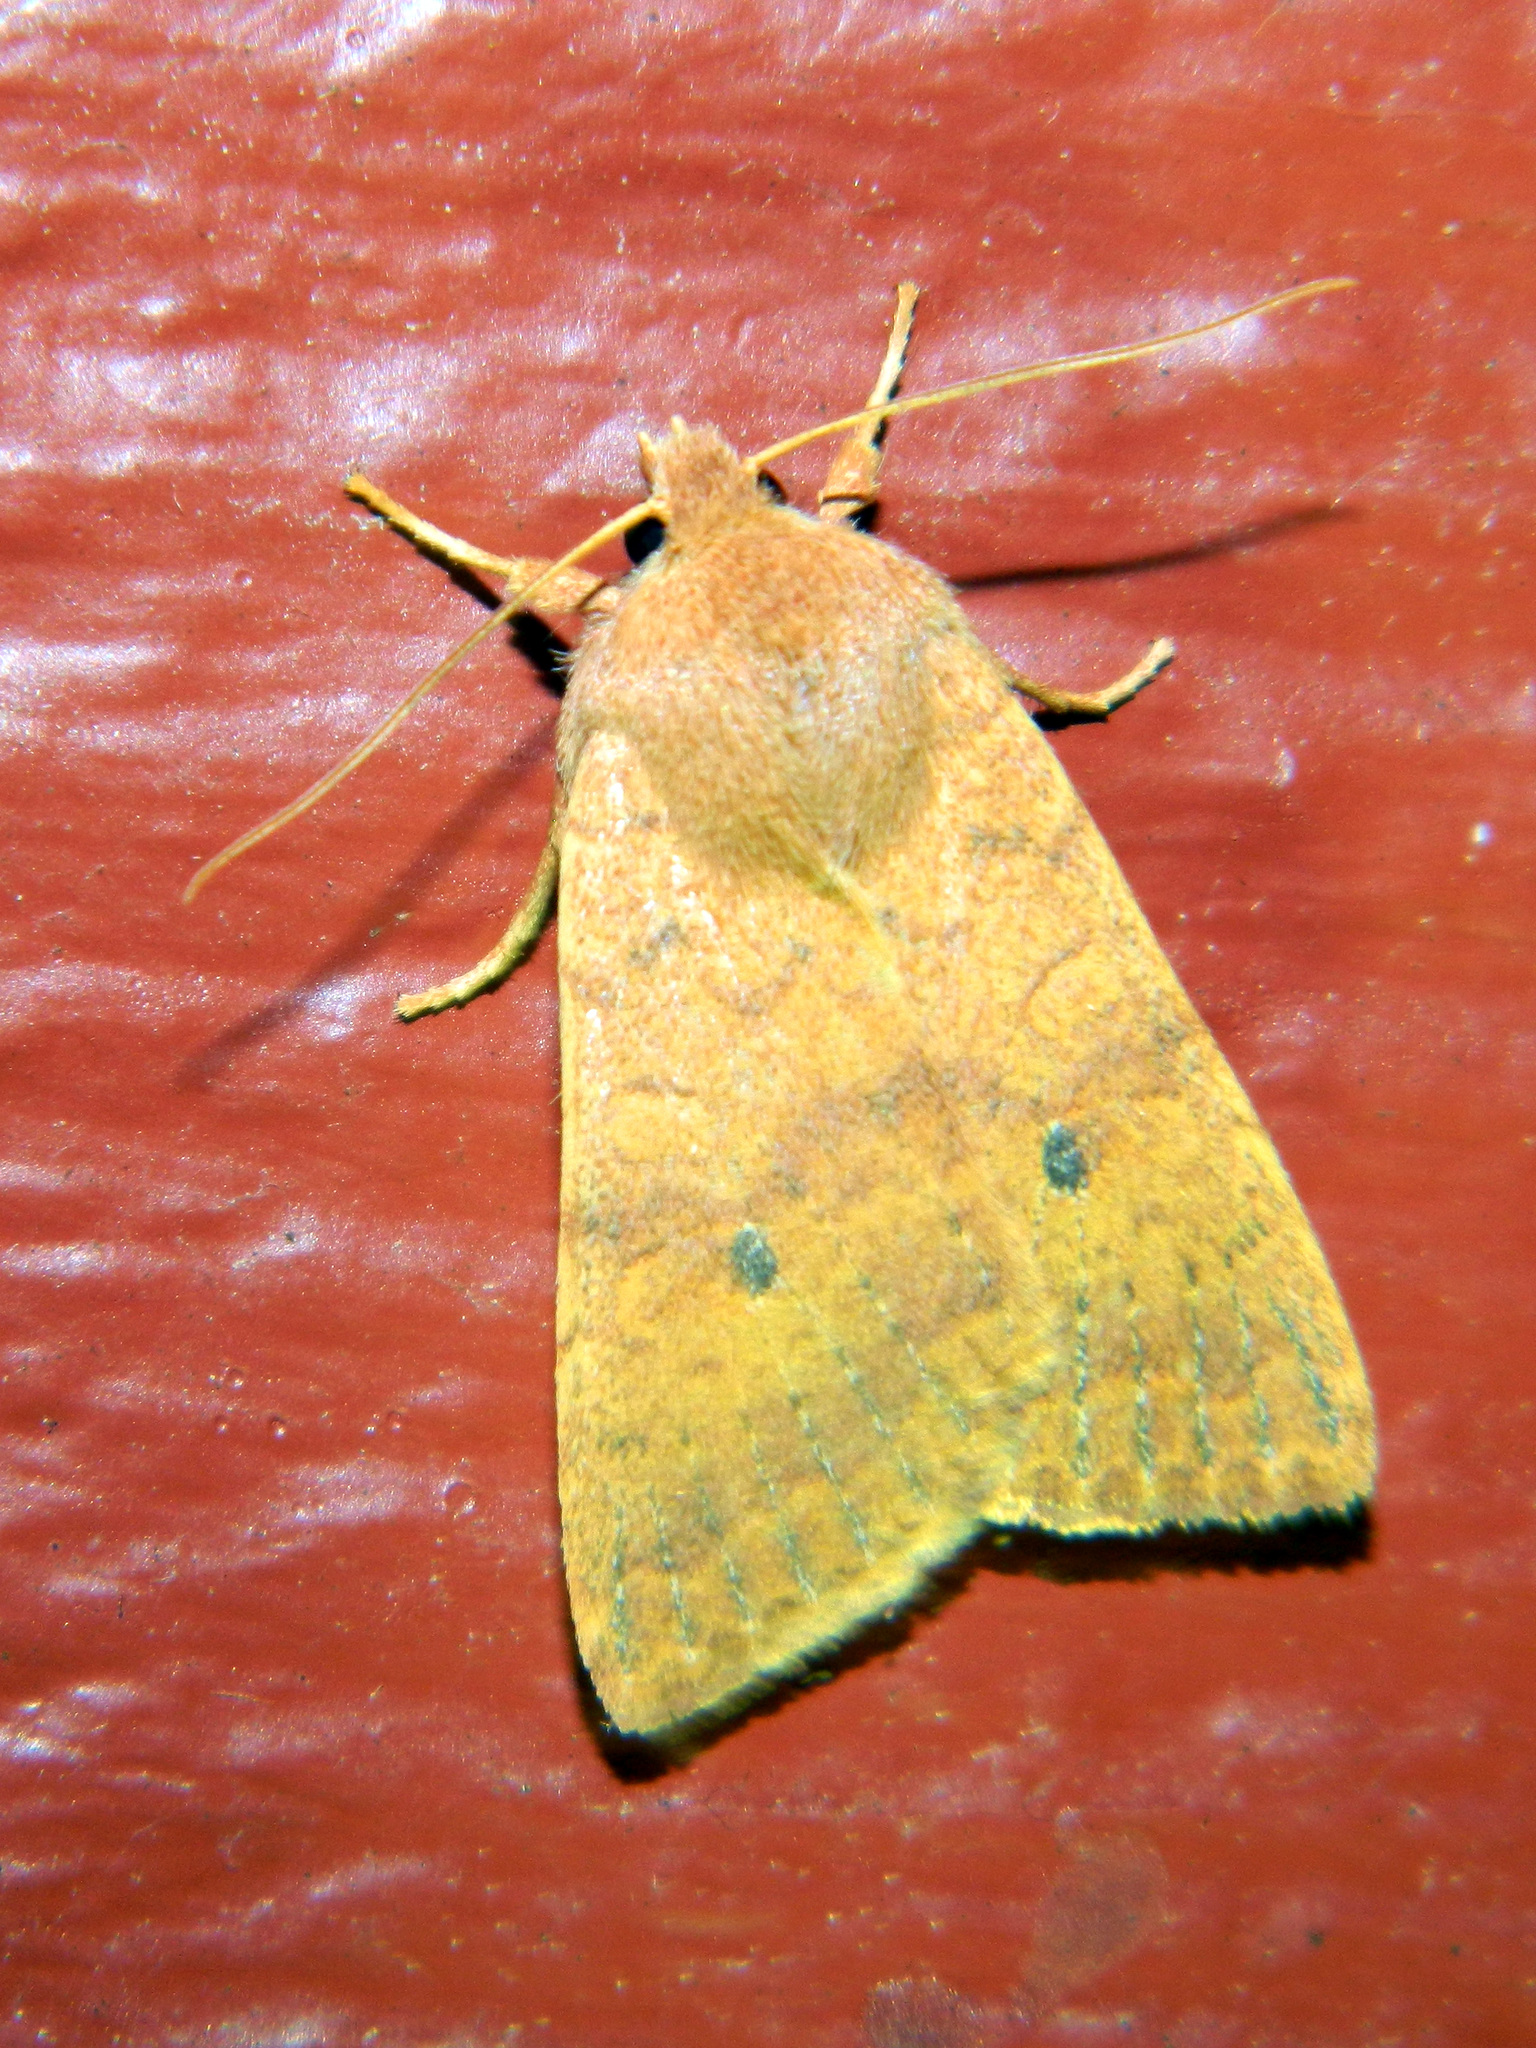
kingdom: Animalia
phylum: Arthropoda
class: Insecta
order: Lepidoptera
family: Noctuidae
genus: Agrochola
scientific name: Agrochola bicolorago
